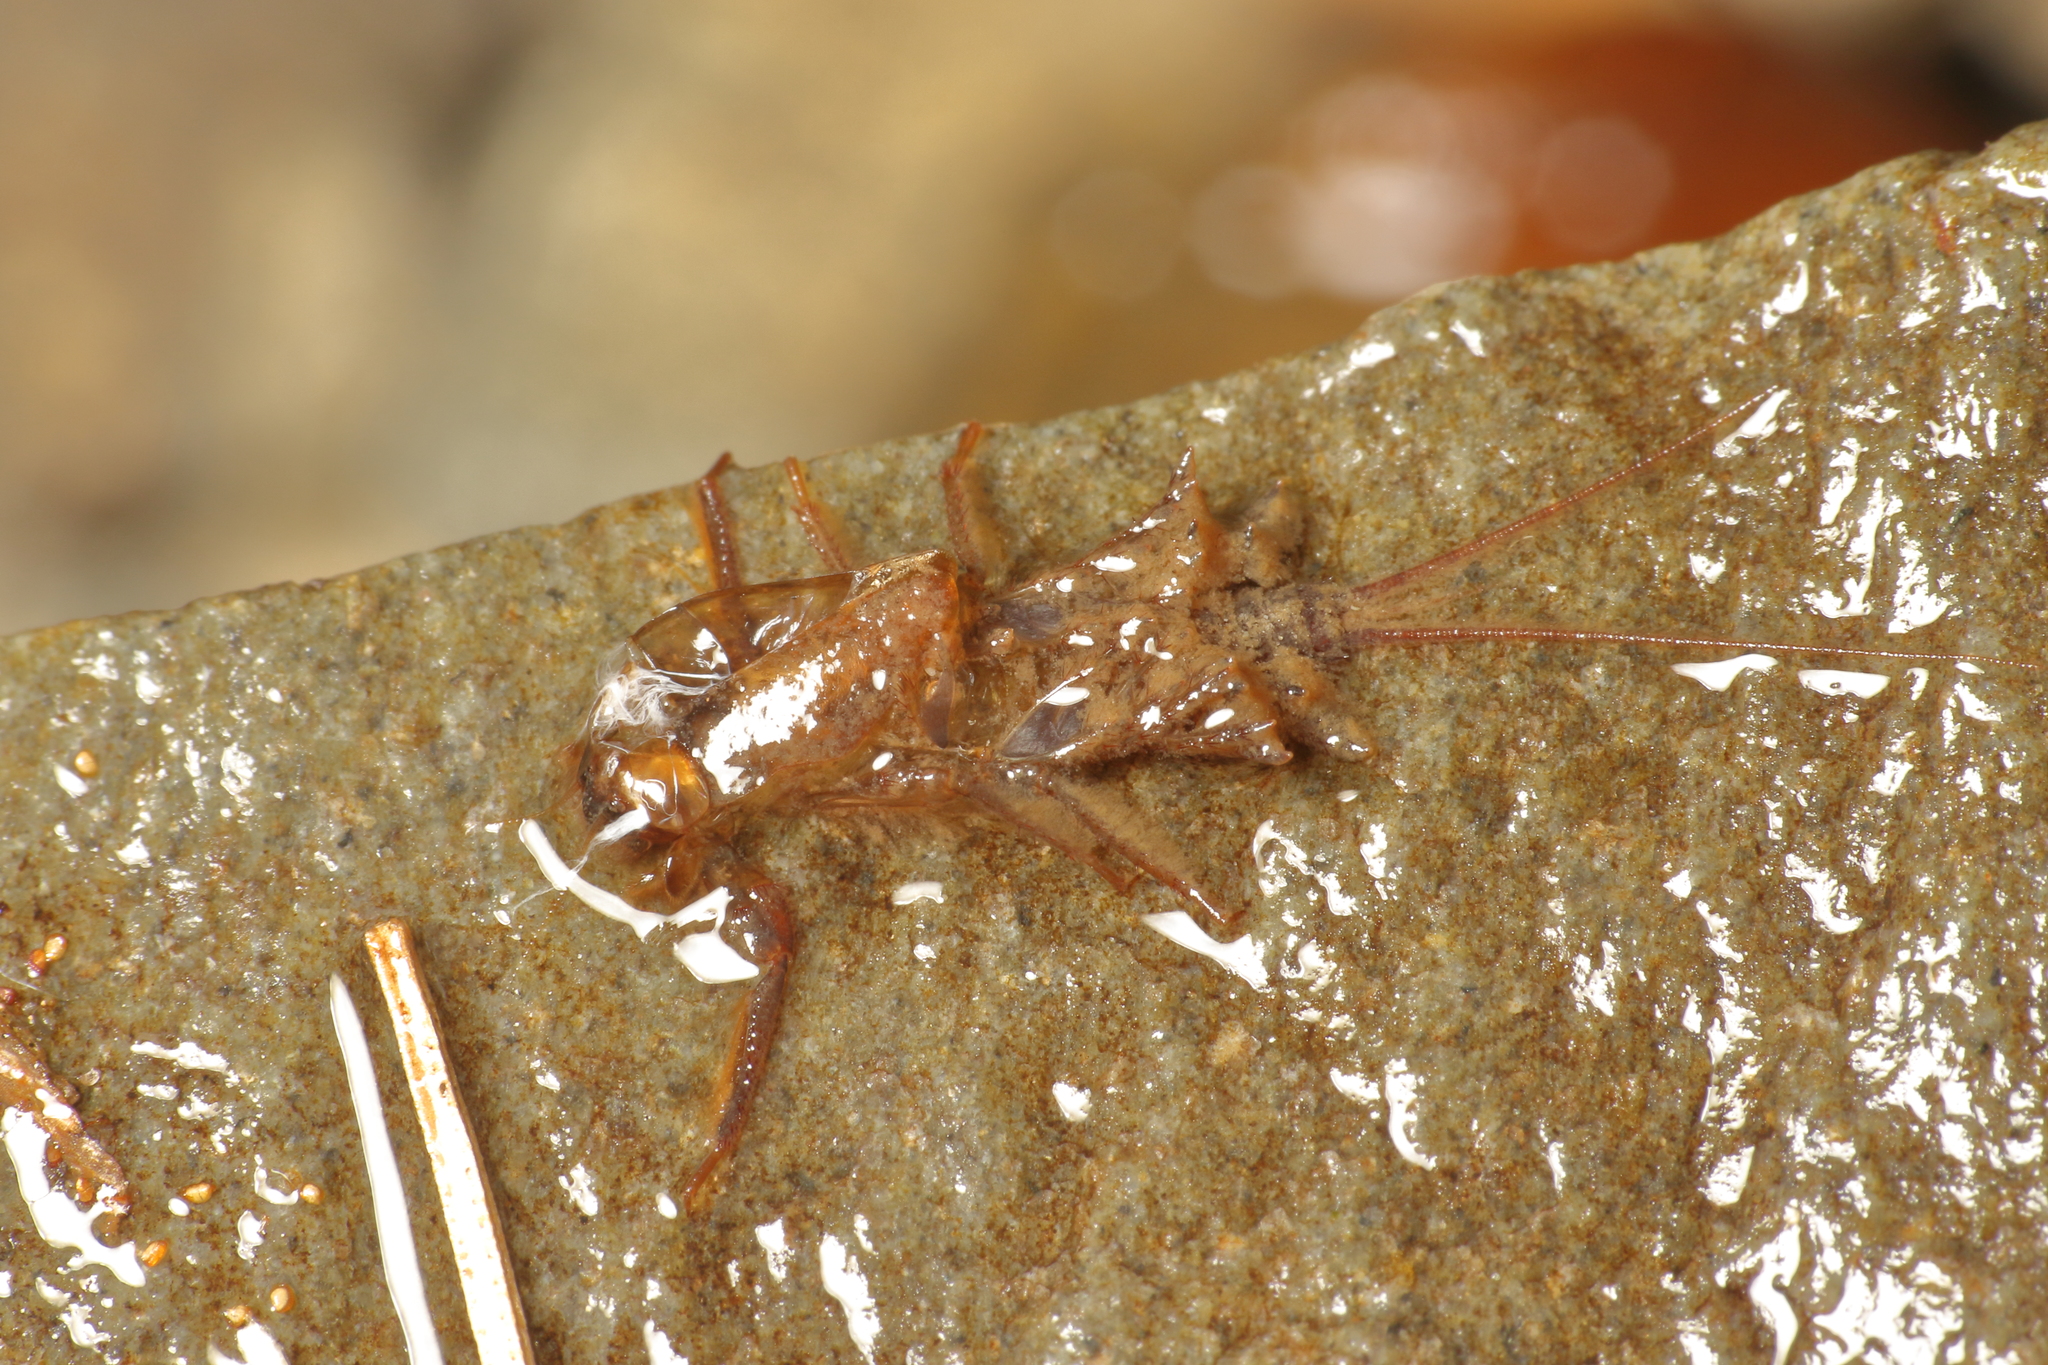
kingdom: Animalia
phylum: Arthropoda
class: Insecta
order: Ephemeroptera
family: Coloburiscidae
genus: Coloburiscus
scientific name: Coloburiscus humeralis
